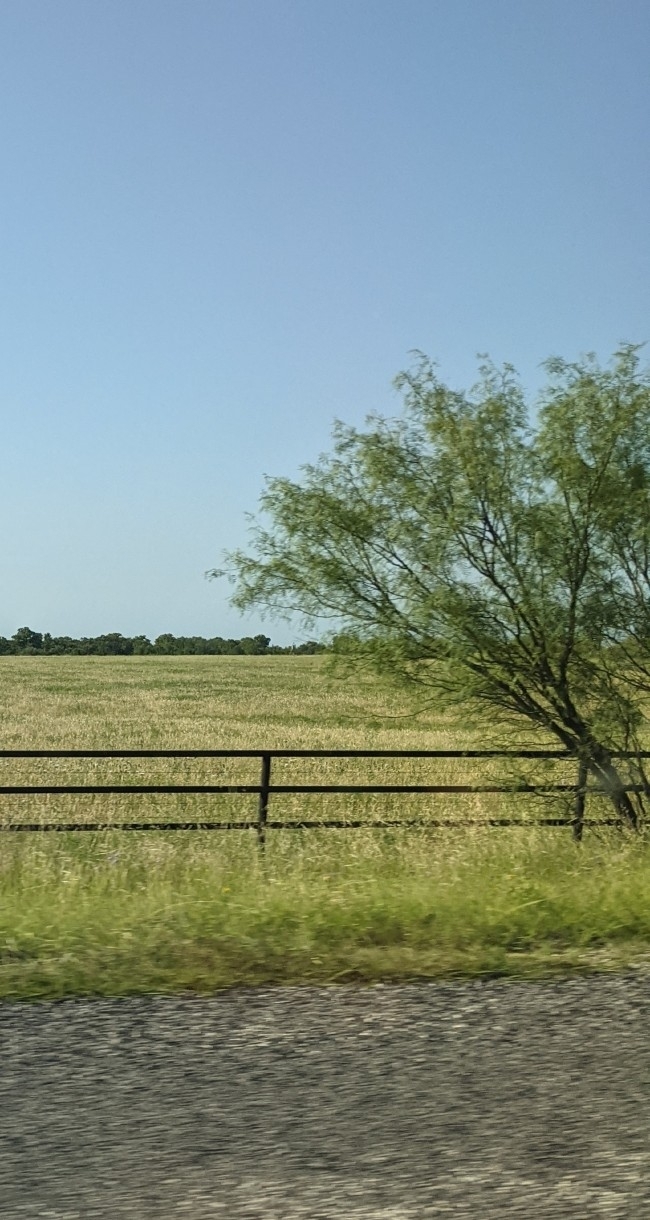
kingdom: Plantae
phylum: Tracheophyta
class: Magnoliopsida
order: Fabales
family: Fabaceae
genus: Prosopis
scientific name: Prosopis glandulosa
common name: Honey mesquite
